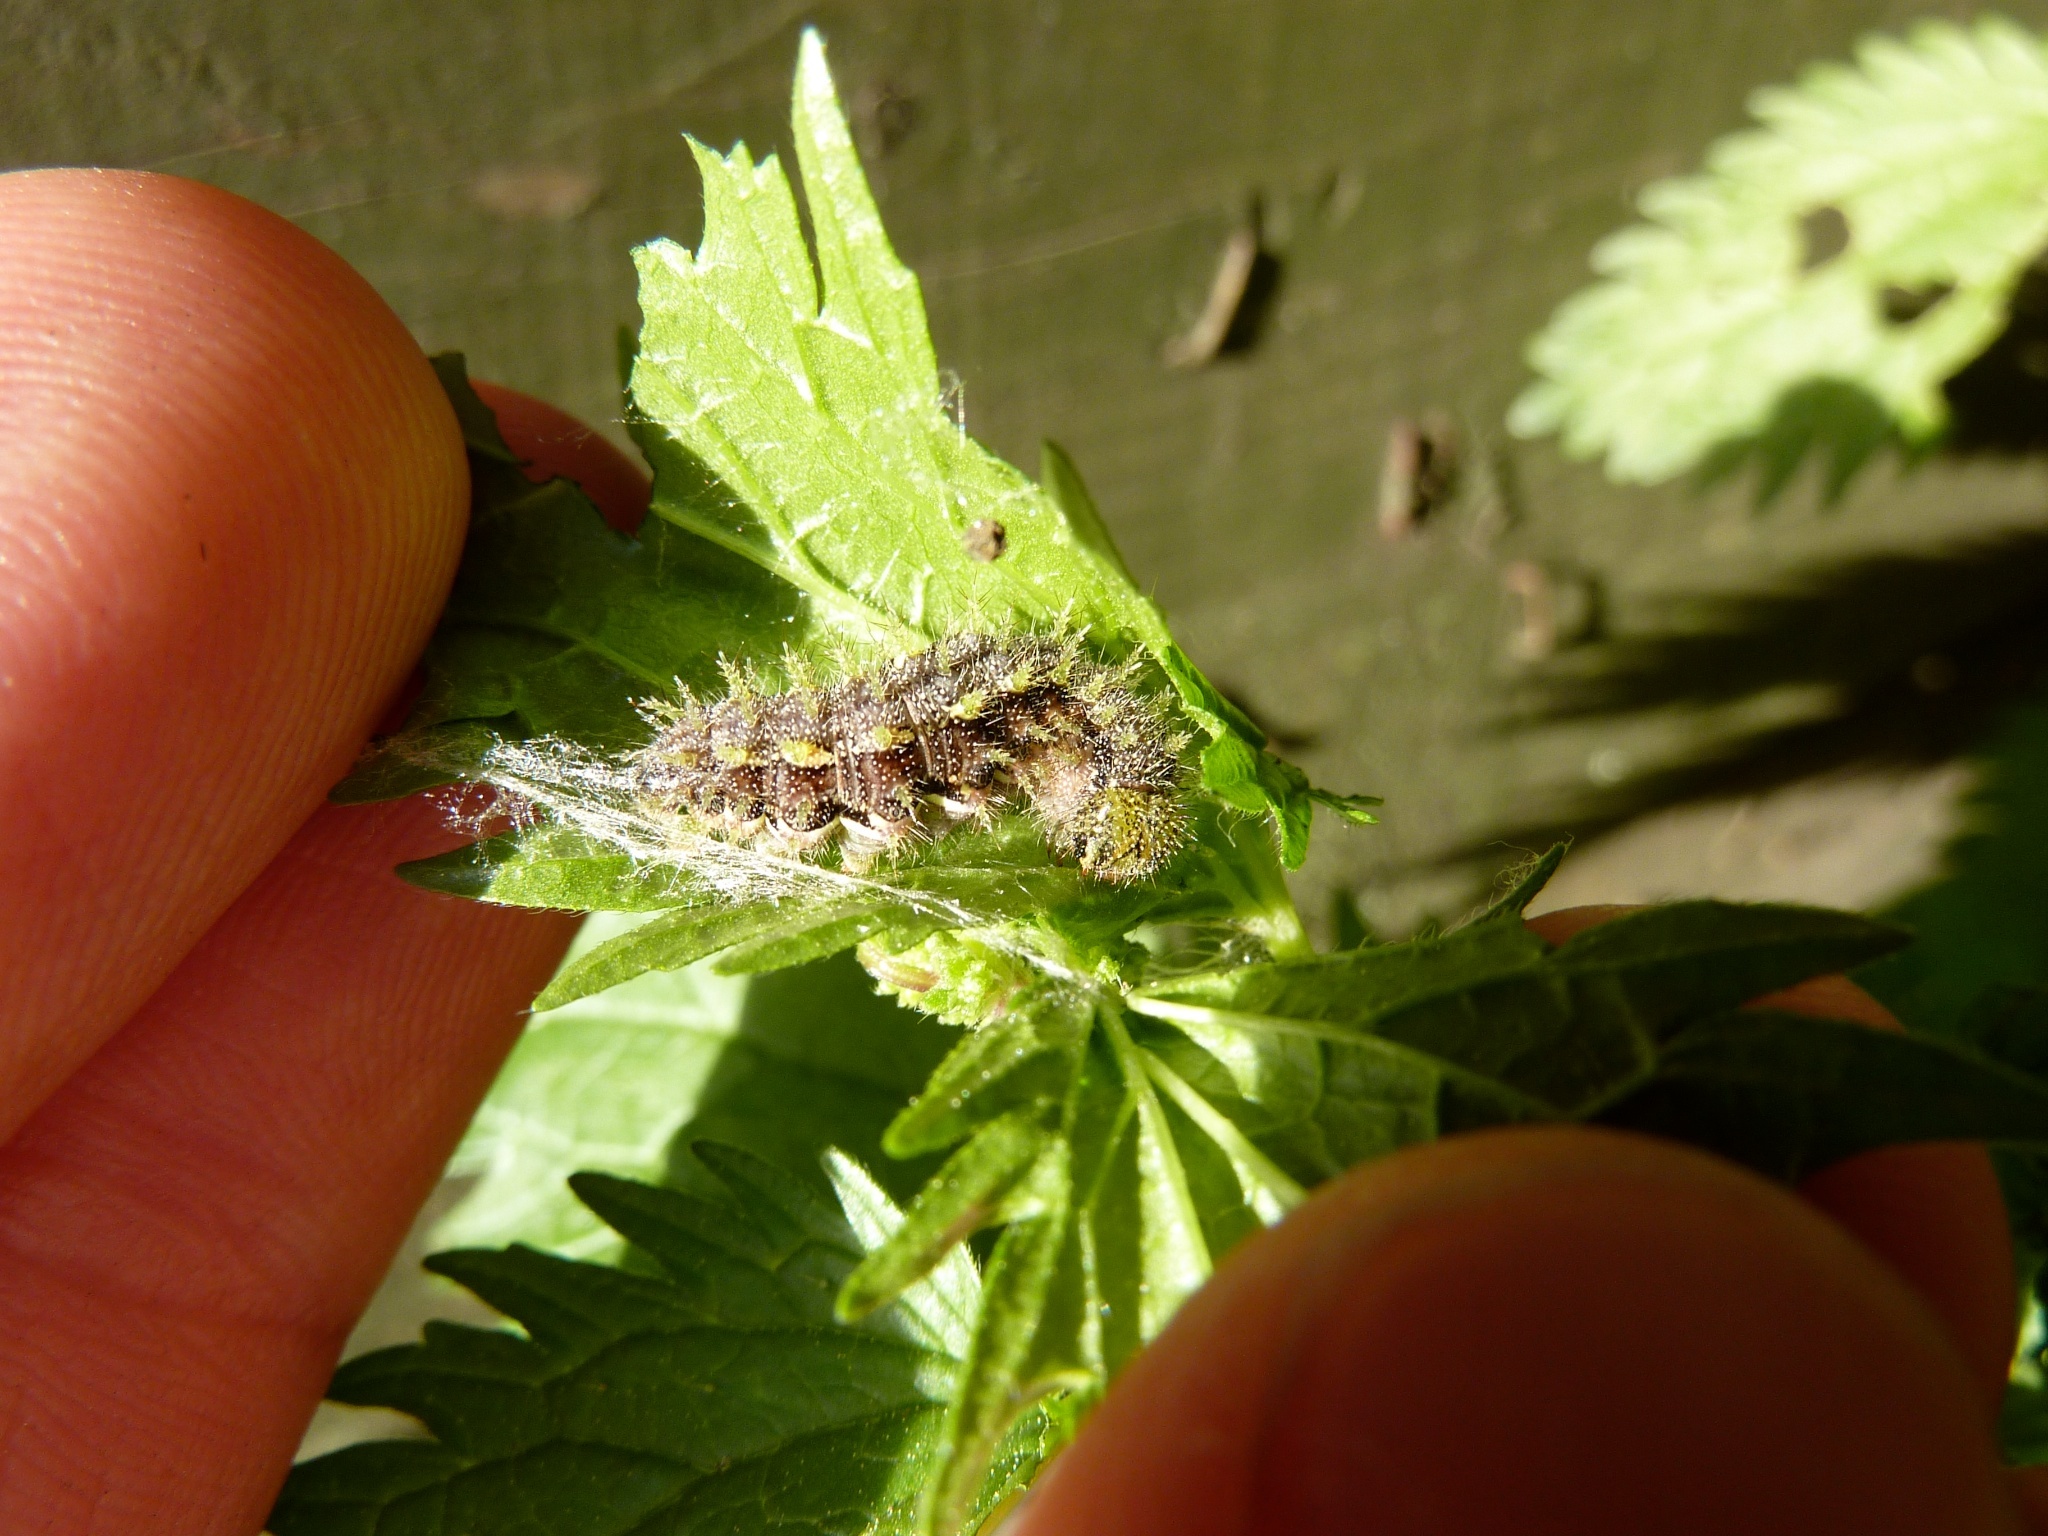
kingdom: Animalia
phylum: Arthropoda
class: Insecta
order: Lepidoptera
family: Nymphalidae
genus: Vanessa
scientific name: Vanessa itea
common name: Yellow admiral
